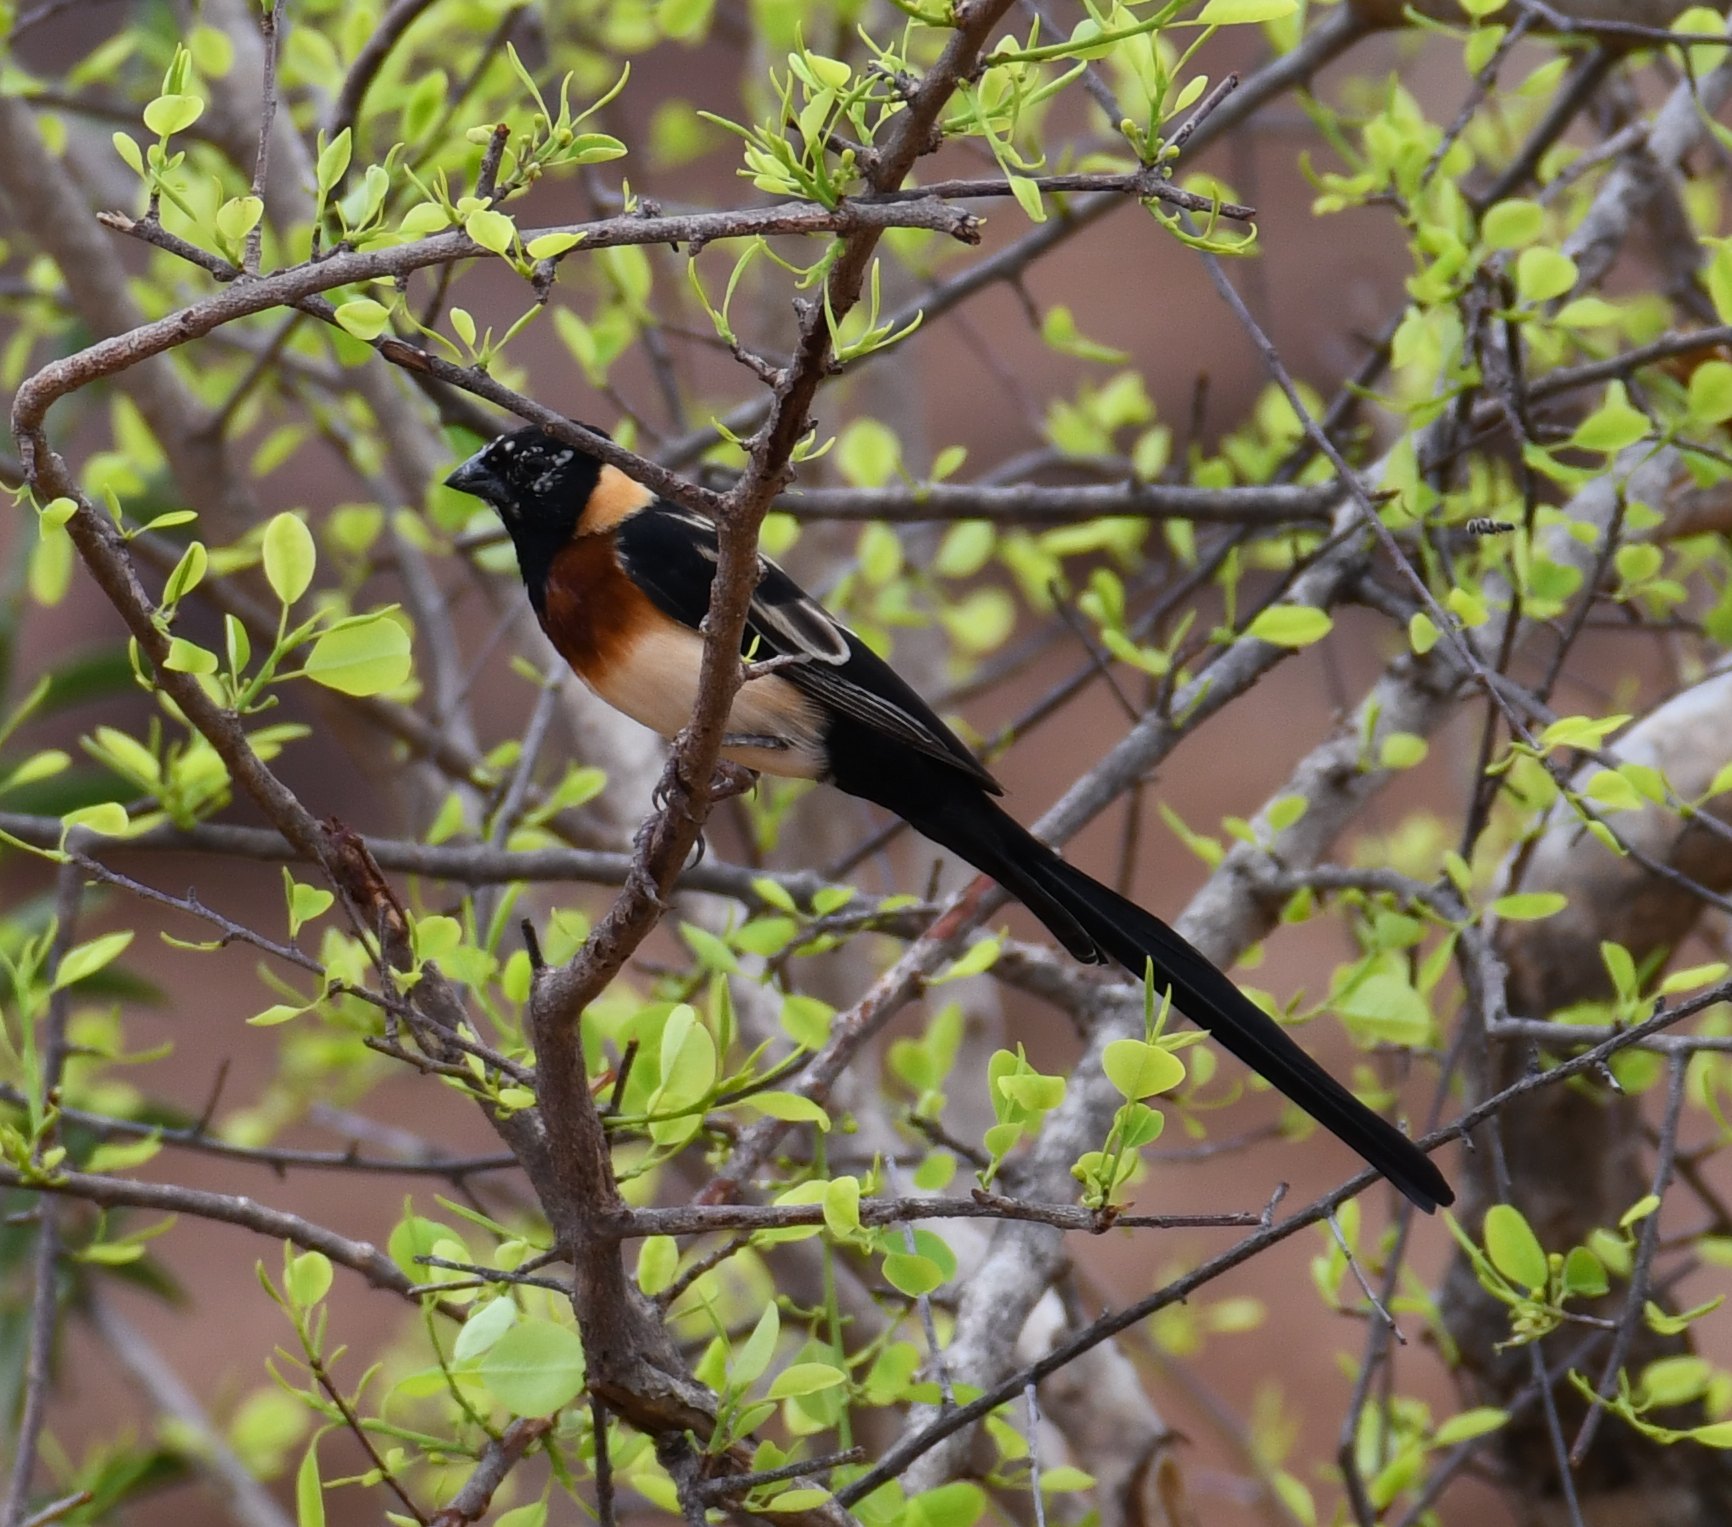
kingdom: Animalia
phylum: Chordata
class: Aves
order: Passeriformes
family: Viduidae
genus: Vidua
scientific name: Vidua paradisaea
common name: Long-tailed paradise whydah
